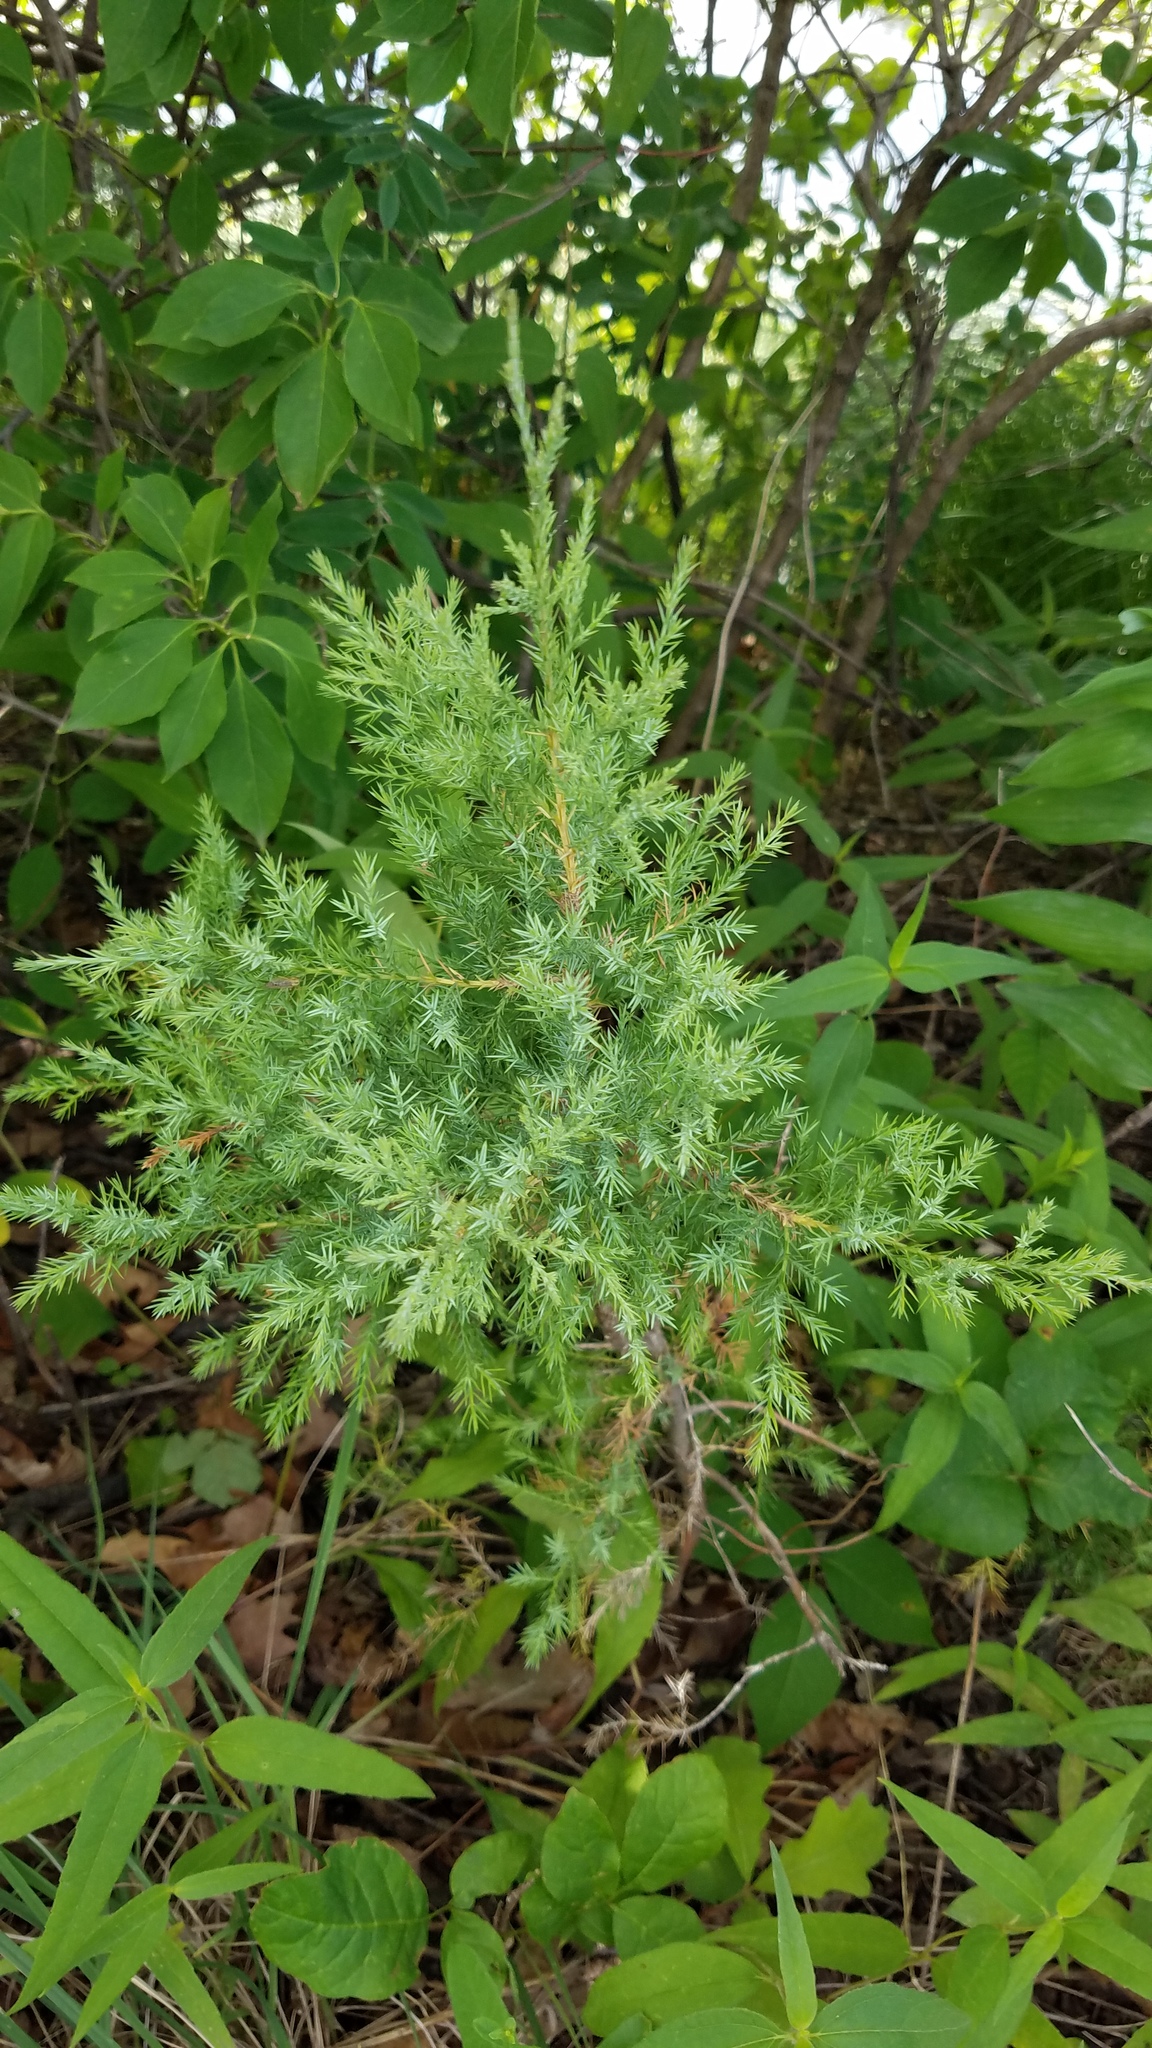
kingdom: Plantae
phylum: Tracheophyta
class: Pinopsida
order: Pinales
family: Cupressaceae
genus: Juniperus
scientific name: Juniperus virginiana
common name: Red juniper
